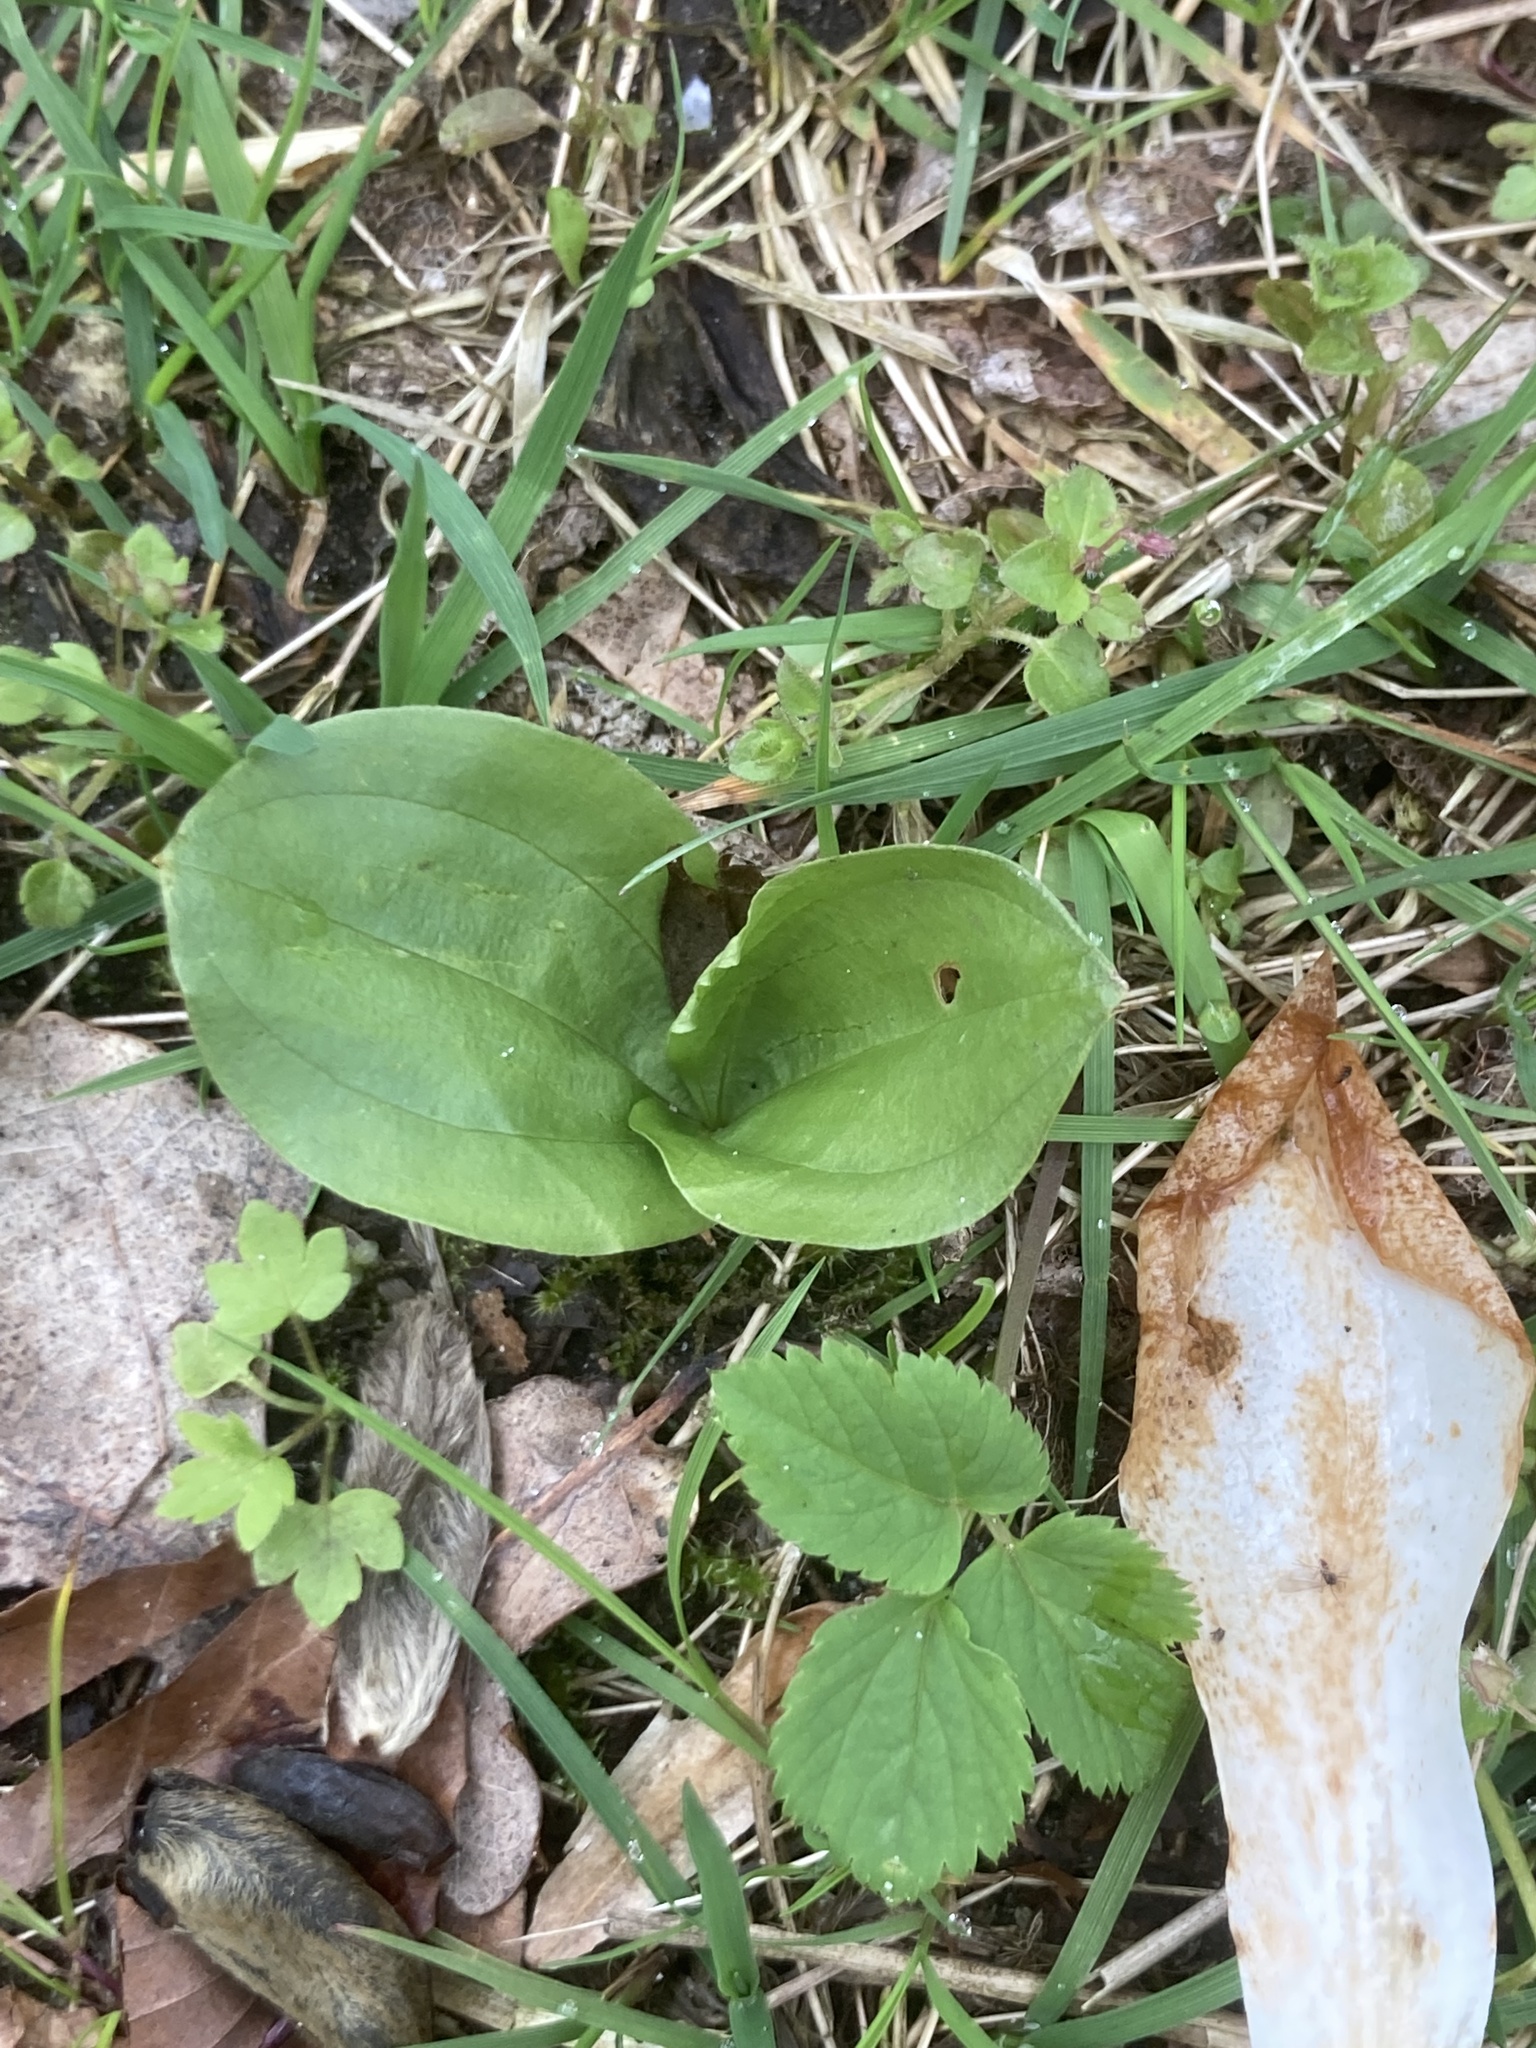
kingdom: Plantae
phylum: Tracheophyta
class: Liliopsida
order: Asparagales
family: Orchidaceae
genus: Neottia
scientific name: Neottia ovata
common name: Common twayblade
